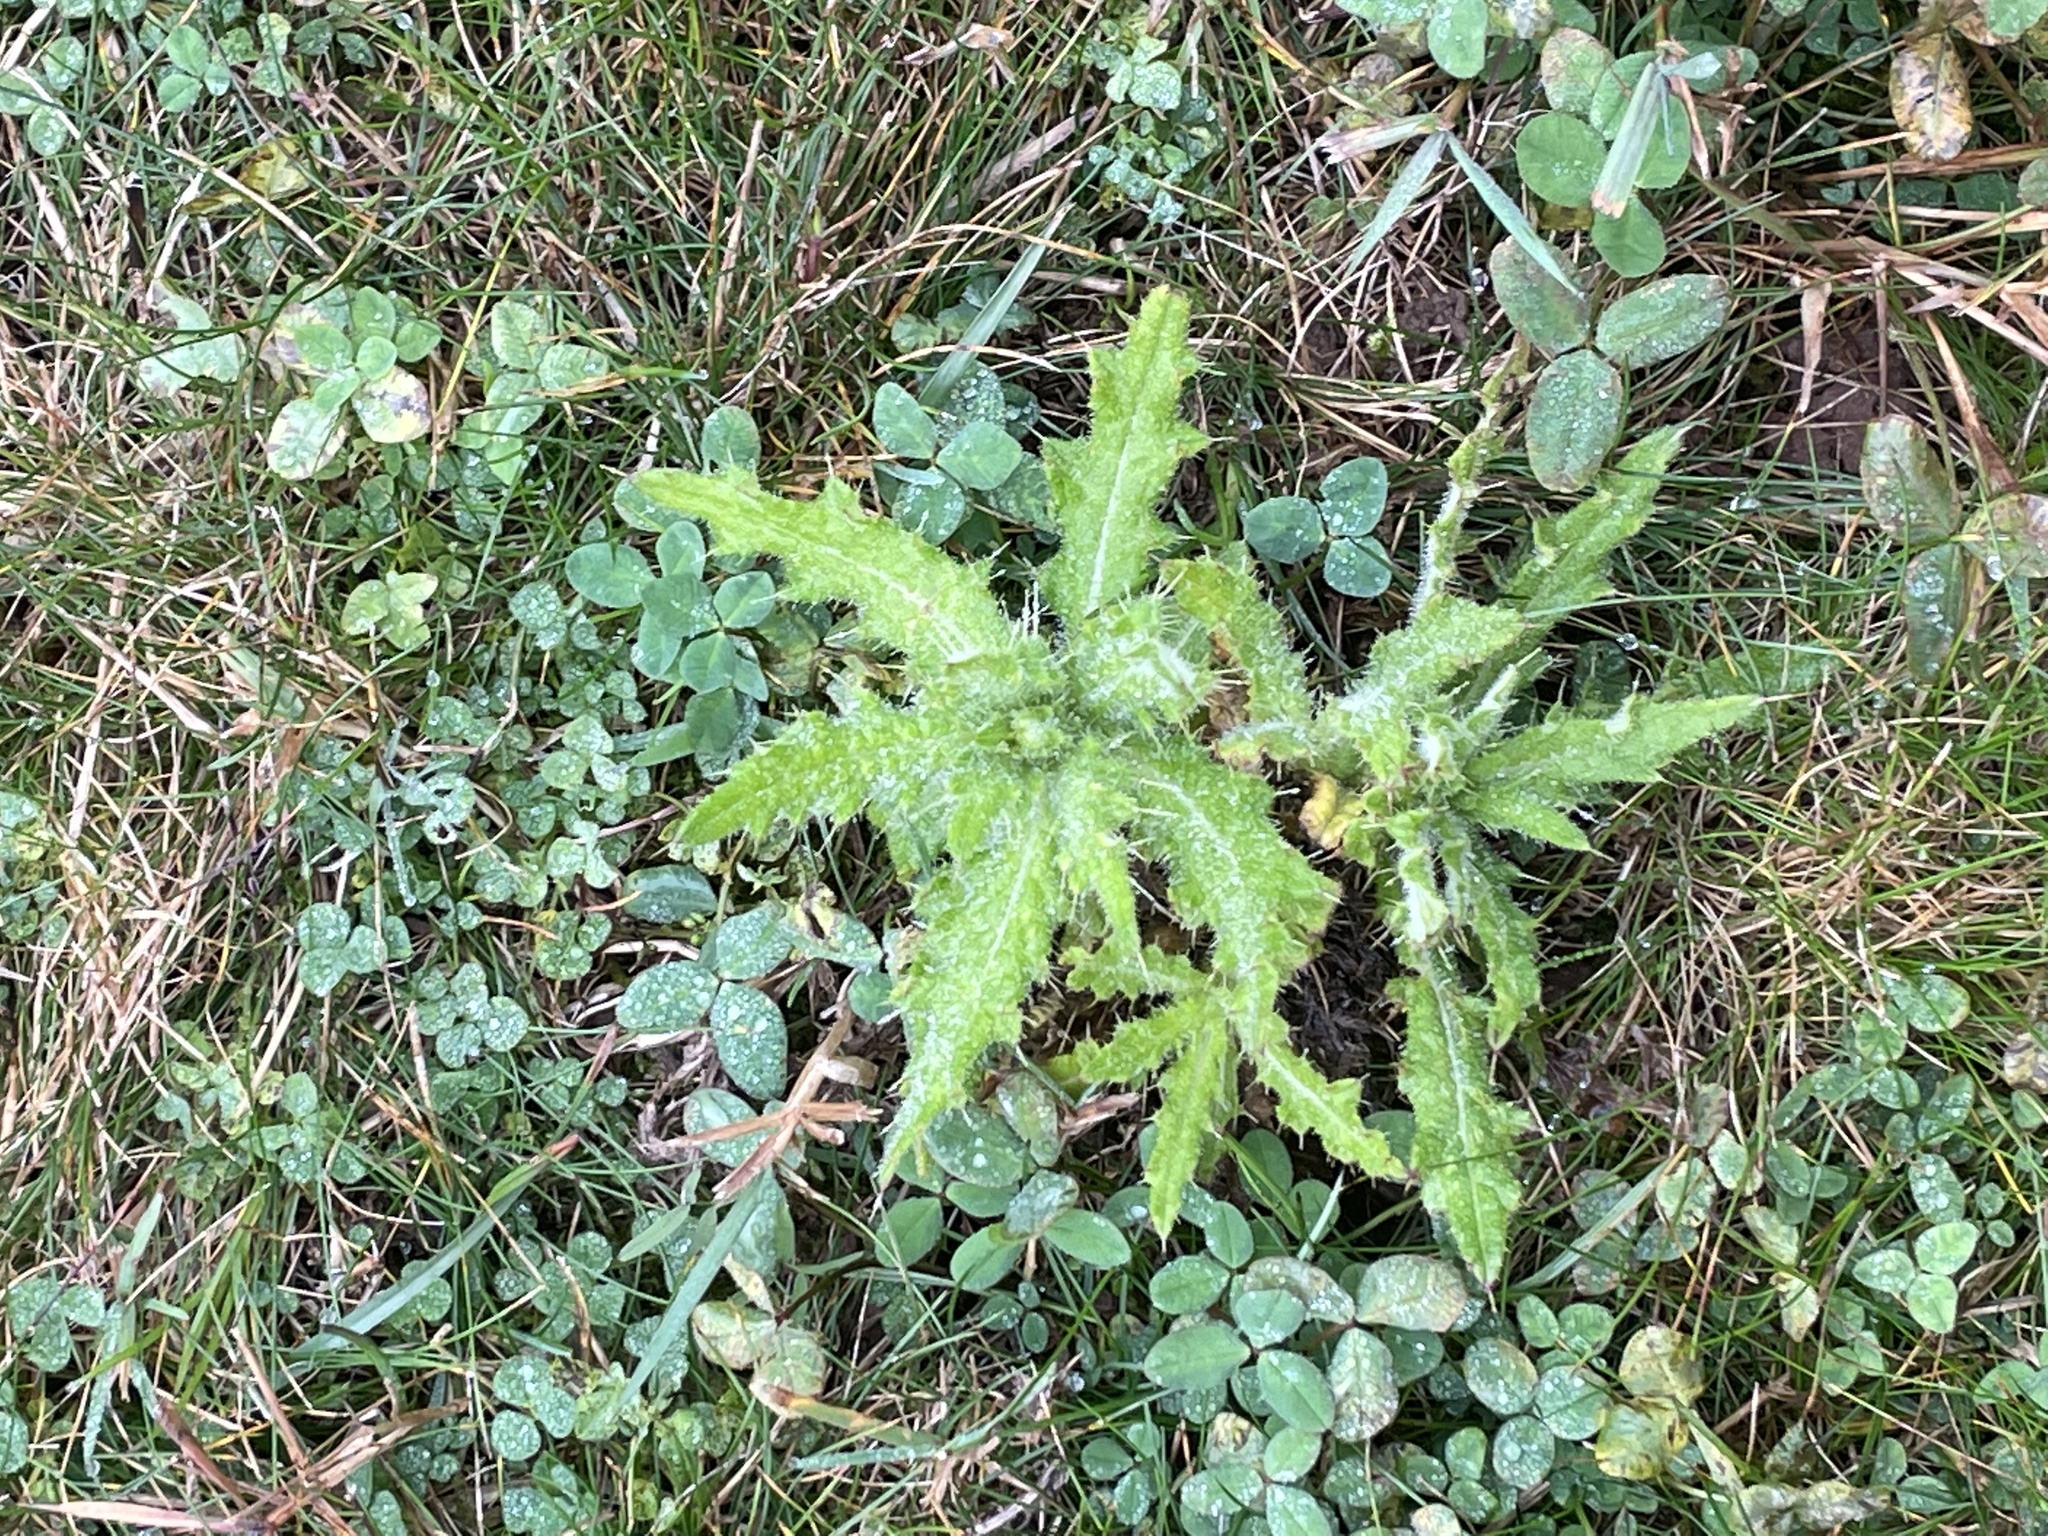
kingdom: Plantae
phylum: Tracheophyta
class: Magnoliopsida
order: Asterales
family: Asteraceae
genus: Cirsium
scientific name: Cirsium arvense
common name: Creeping thistle
